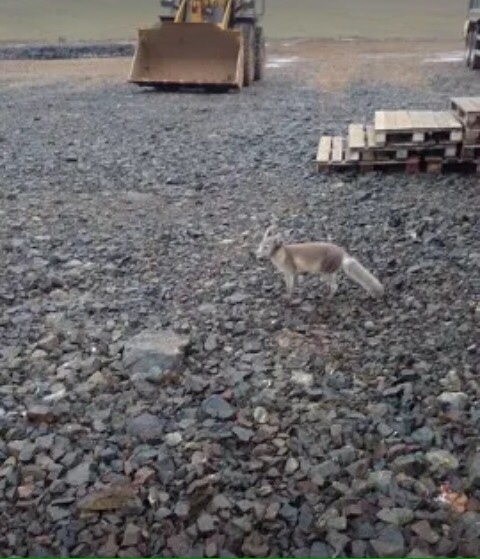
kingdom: Animalia
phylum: Chordata
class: Mammalia
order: Carnivora
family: Canidae
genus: Vulpes
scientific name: Vulpes lagopus
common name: Arctic fox
